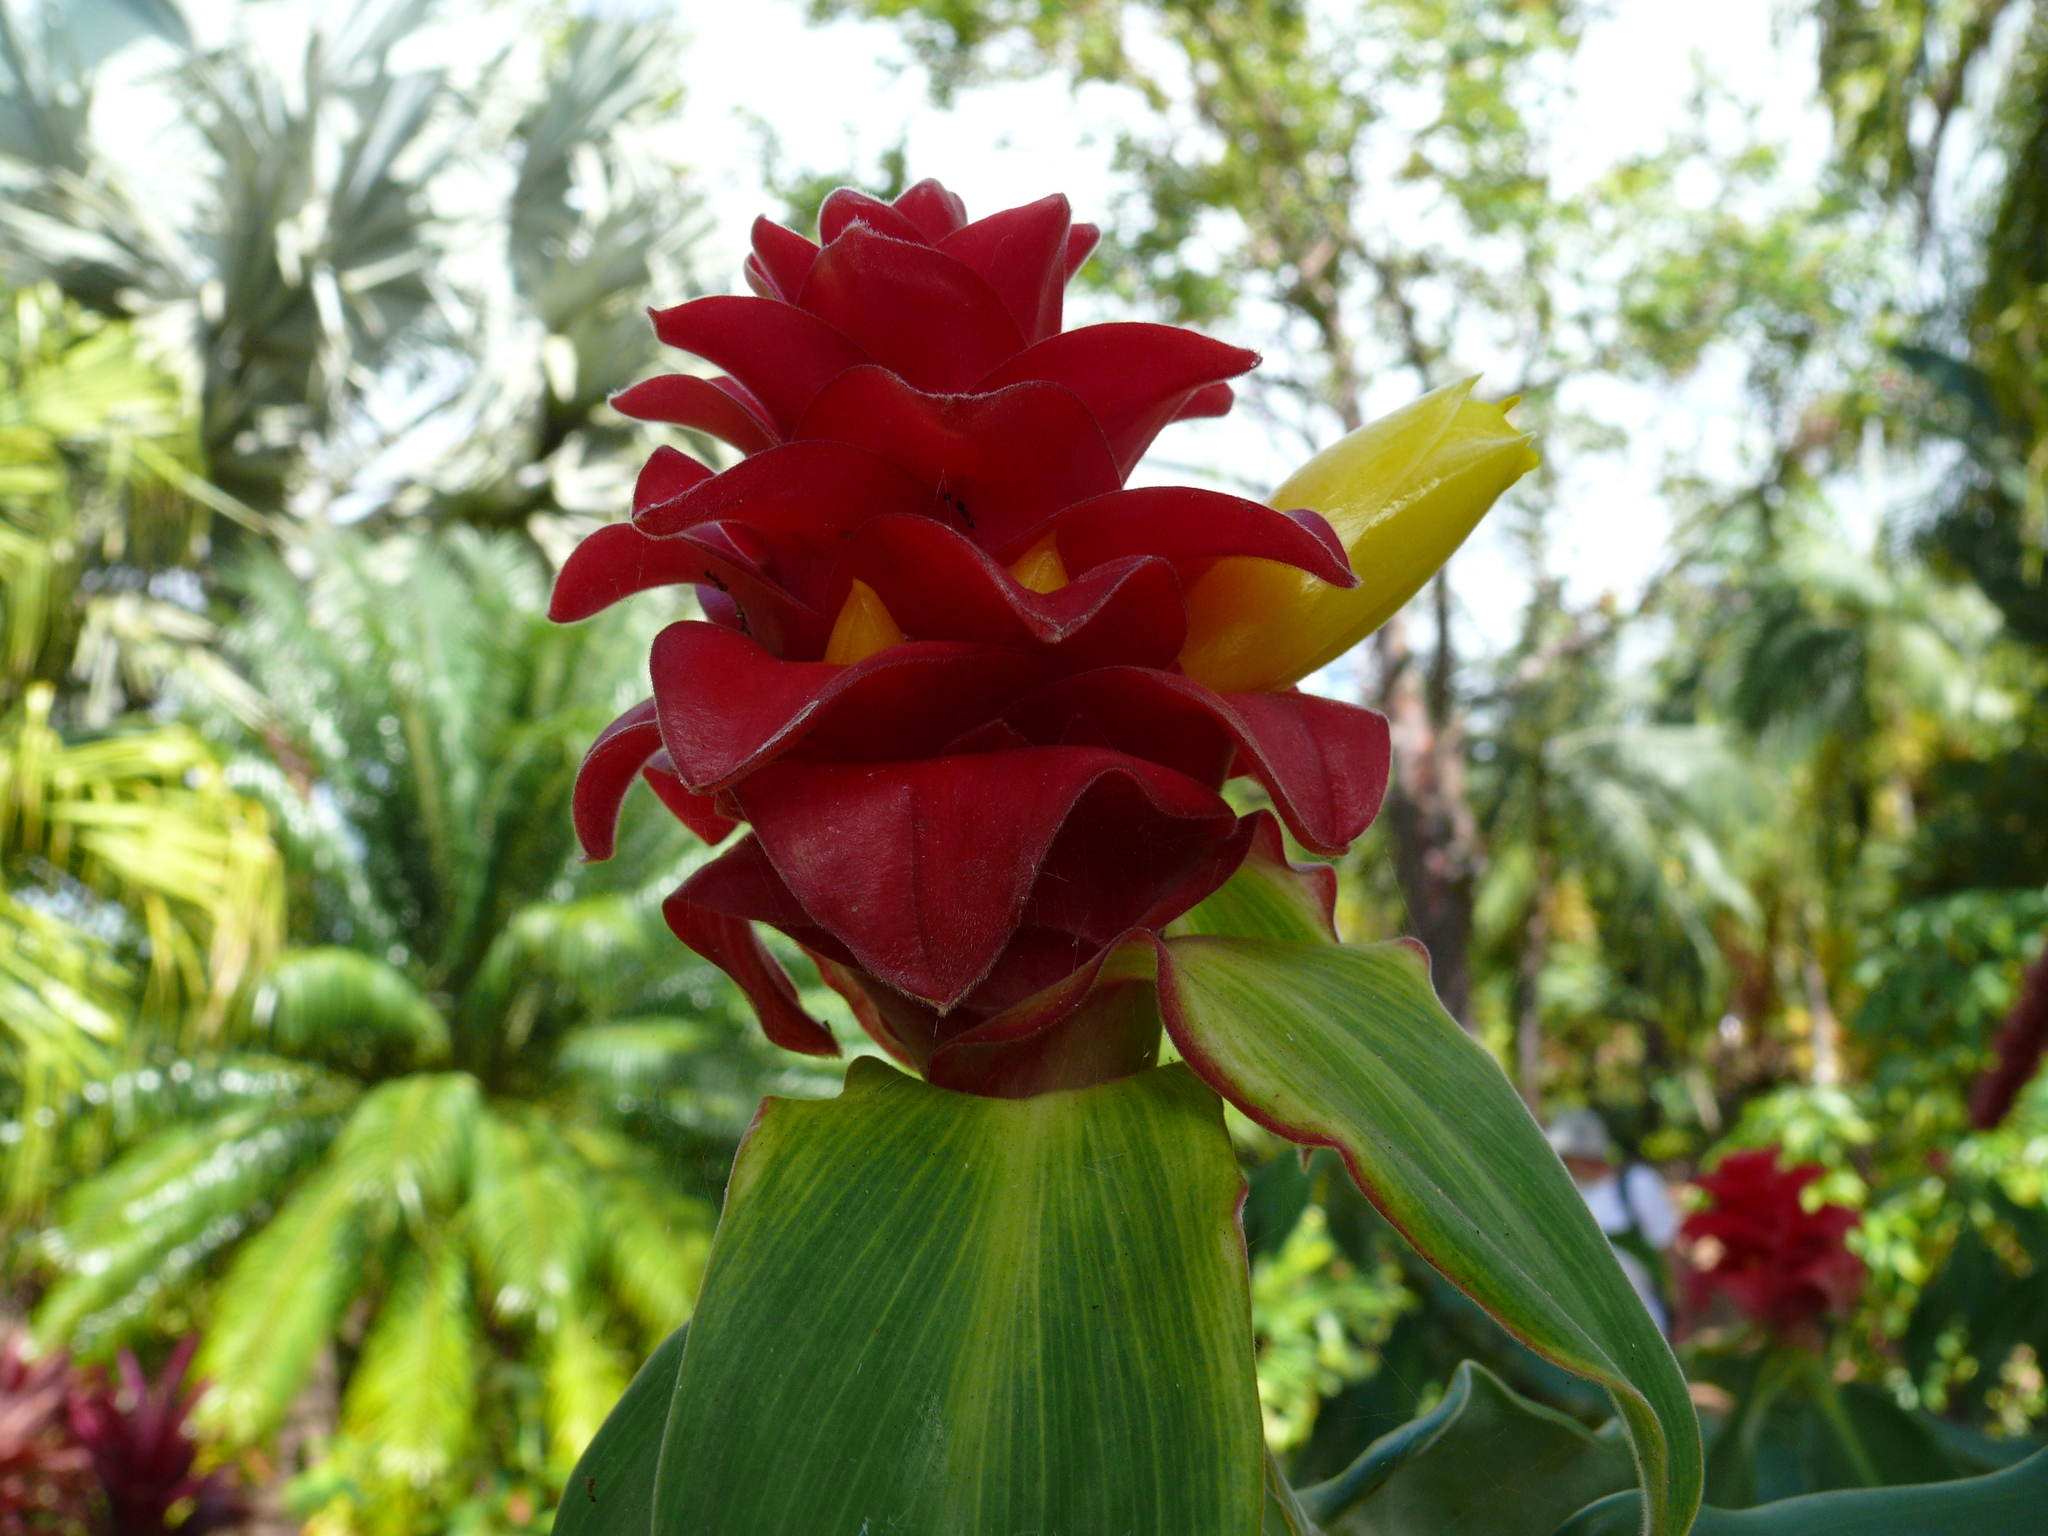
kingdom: Plantae
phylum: Tracheophyta
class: Liliopsida
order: Zingiberales
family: Costaceae
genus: Costus
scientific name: Costus comosus
